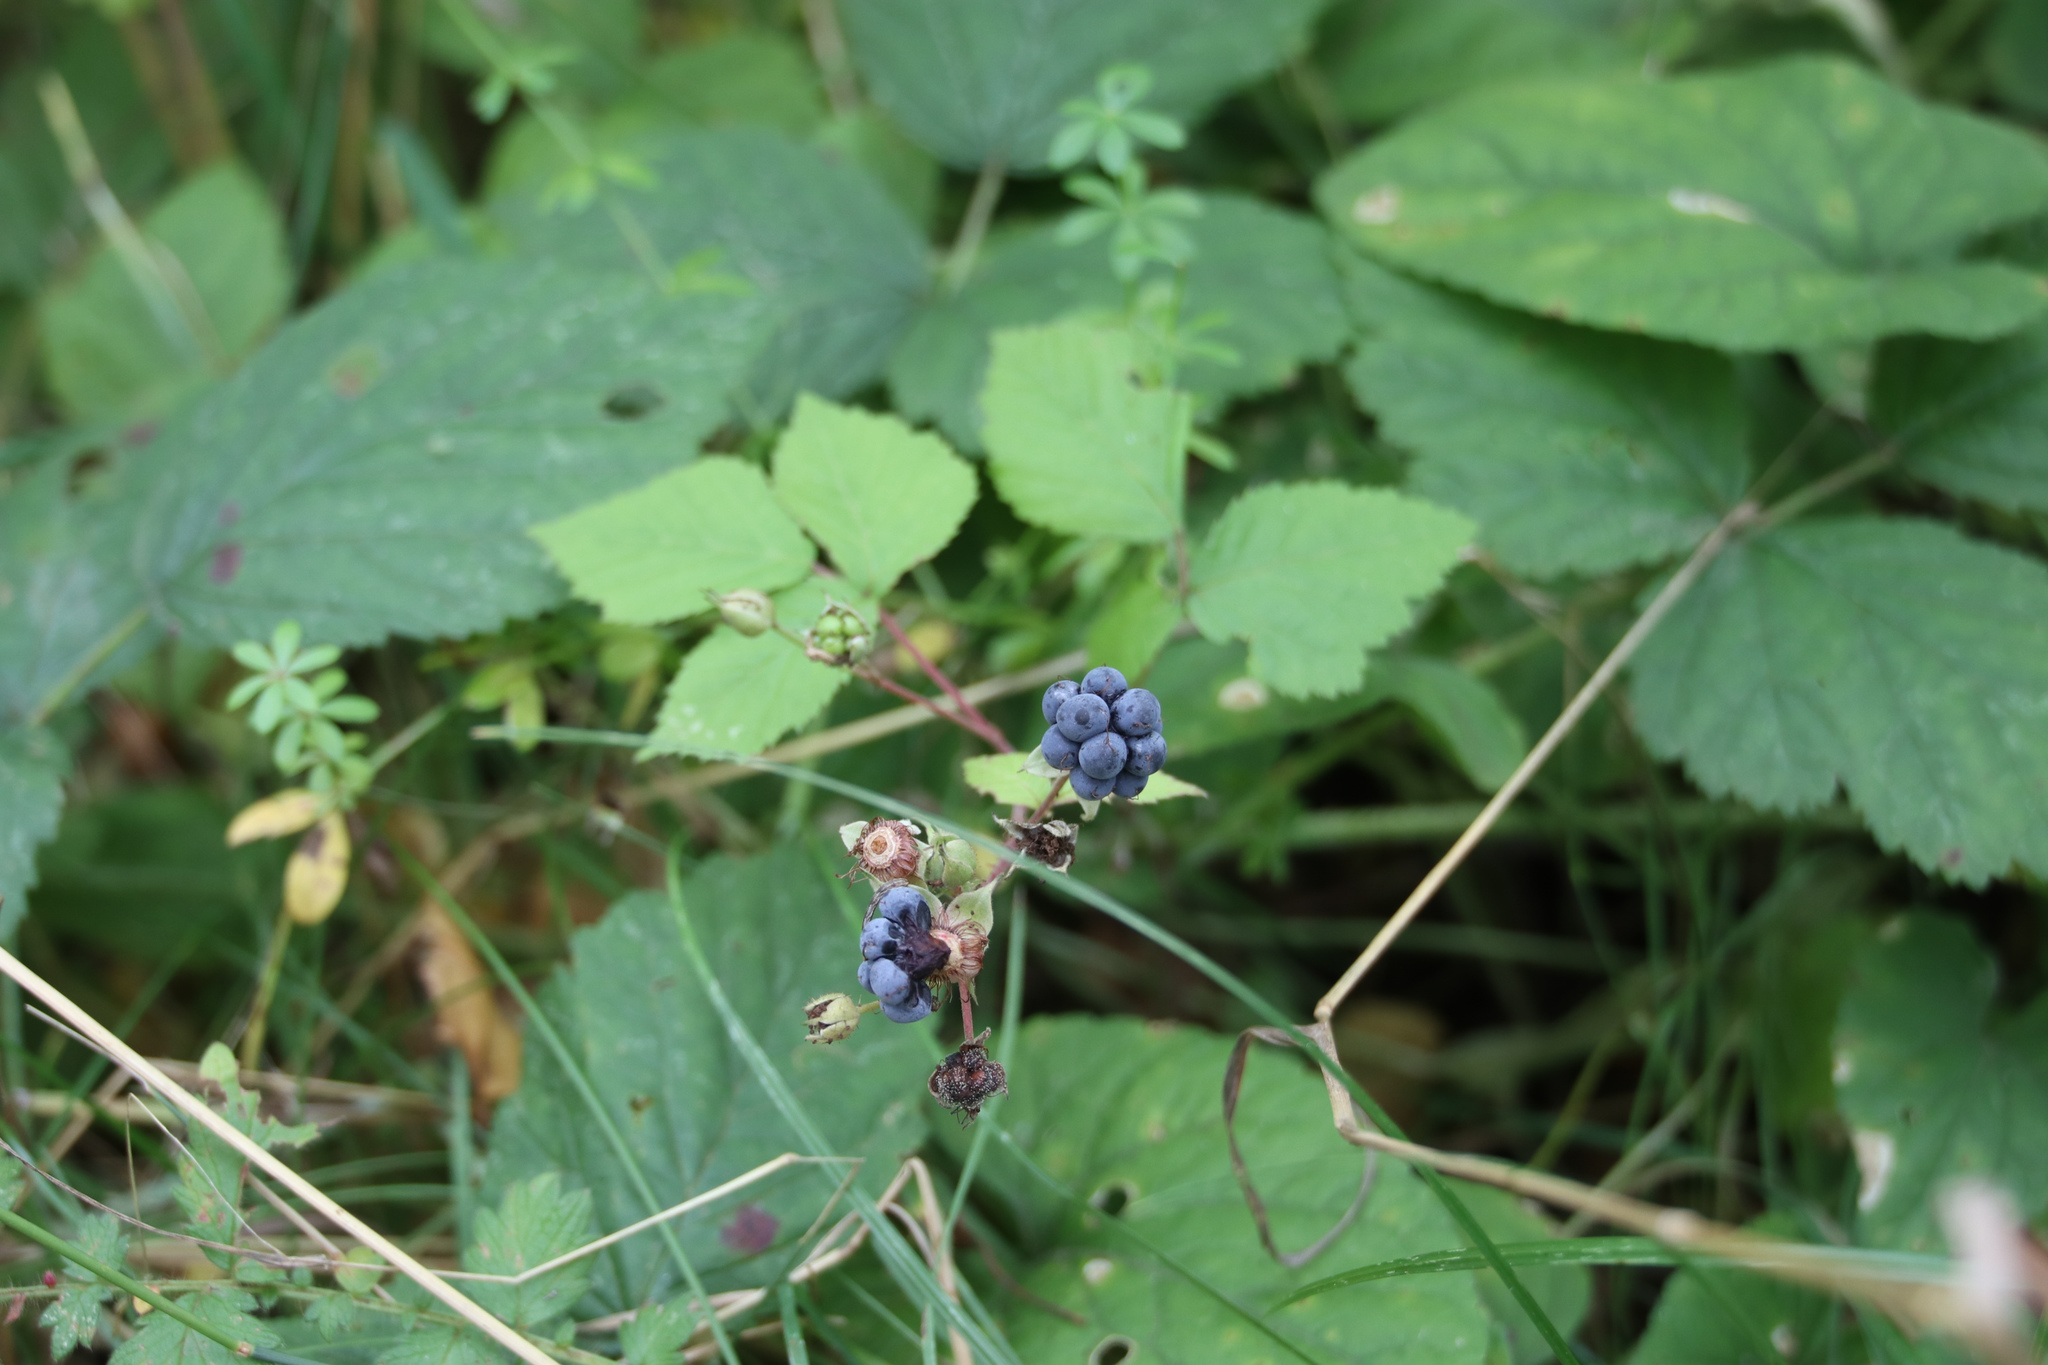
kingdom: Plantae
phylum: Tracheophyta
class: Magnoliopsida
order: Rosales
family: Rosaceae
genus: Rubus
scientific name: Rubus caesius
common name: Dewberry
